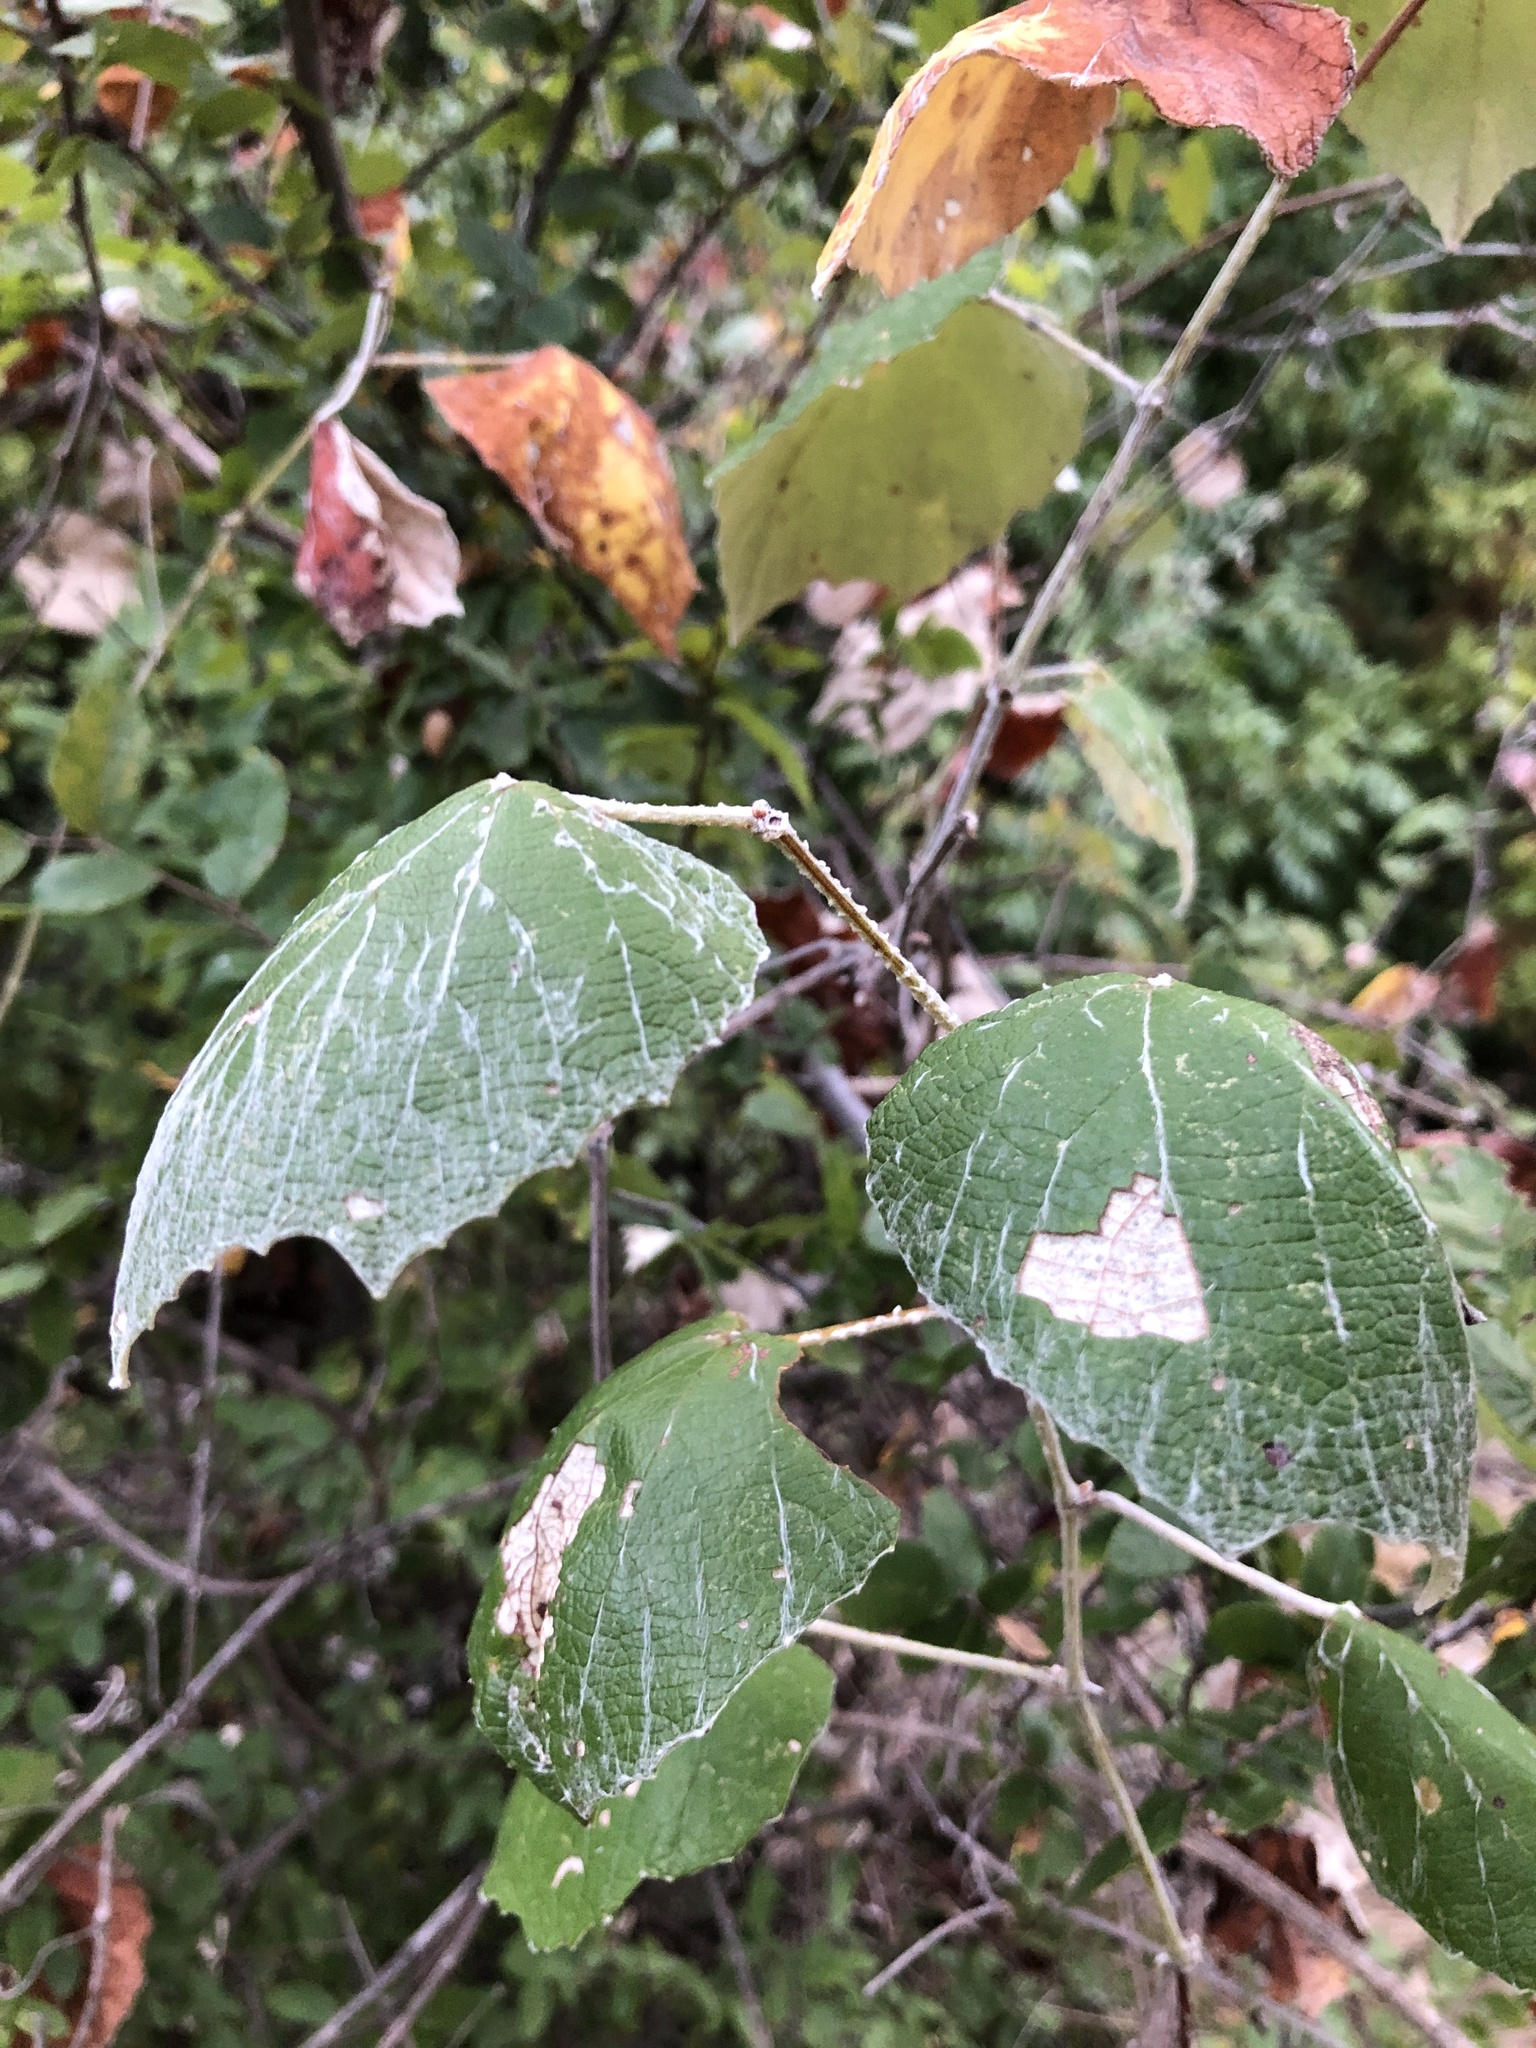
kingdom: Plantae
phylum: Tracheophyta
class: Magnoliopsida
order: Vitales
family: Vitaceae
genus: Vitis
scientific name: Vitis mustangensis
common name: Mustang grape
